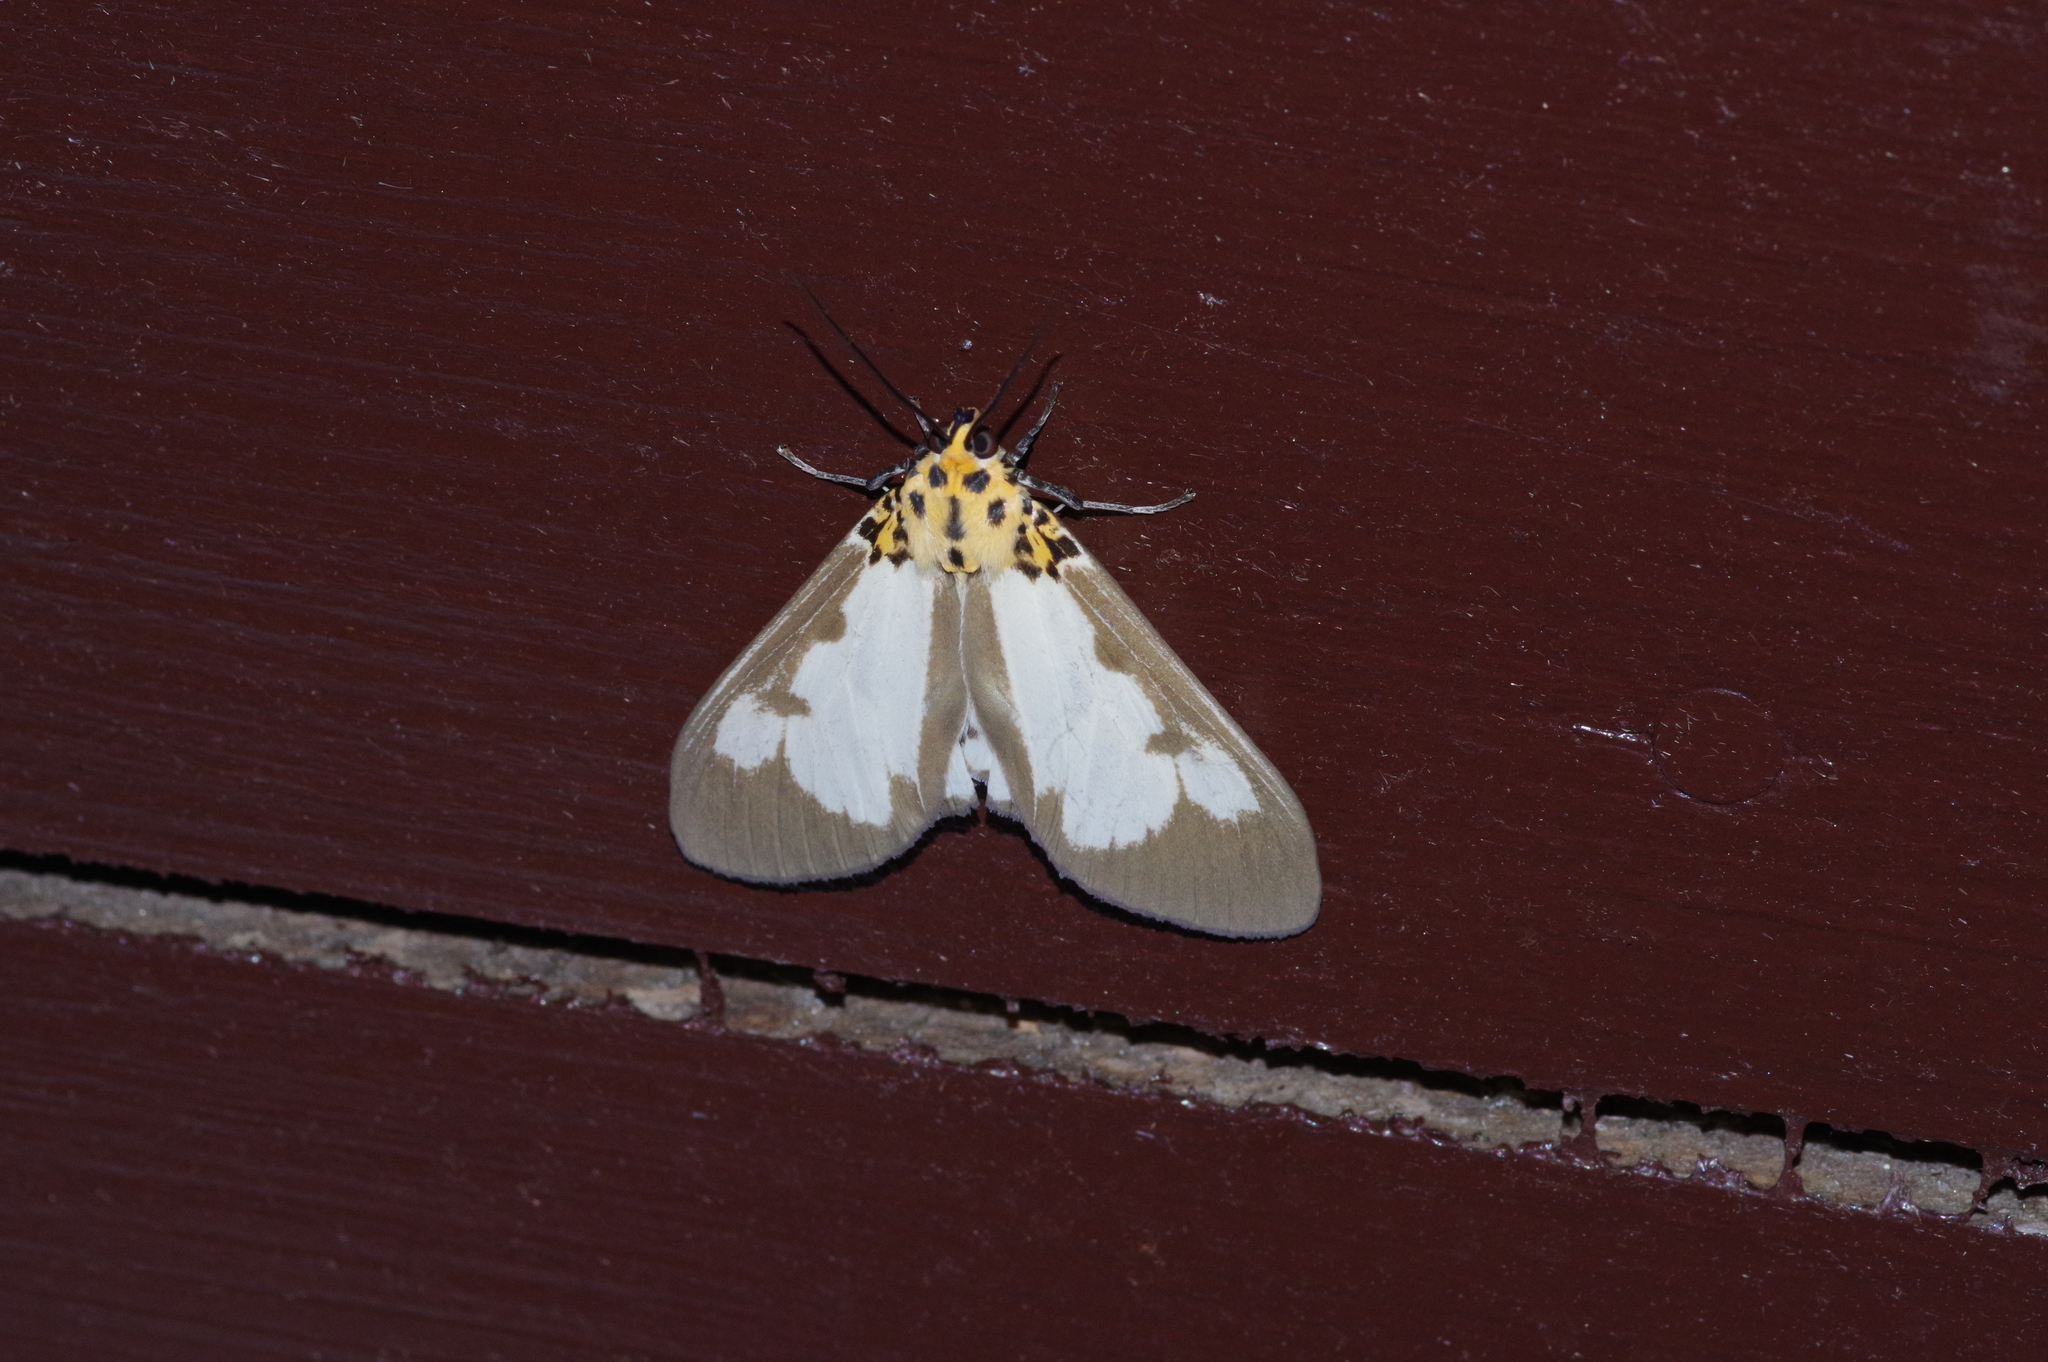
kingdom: Animalia
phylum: Arthropoda
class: Insecta
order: Lepidoptera
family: Erebidae
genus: Asota
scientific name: Asota plana
